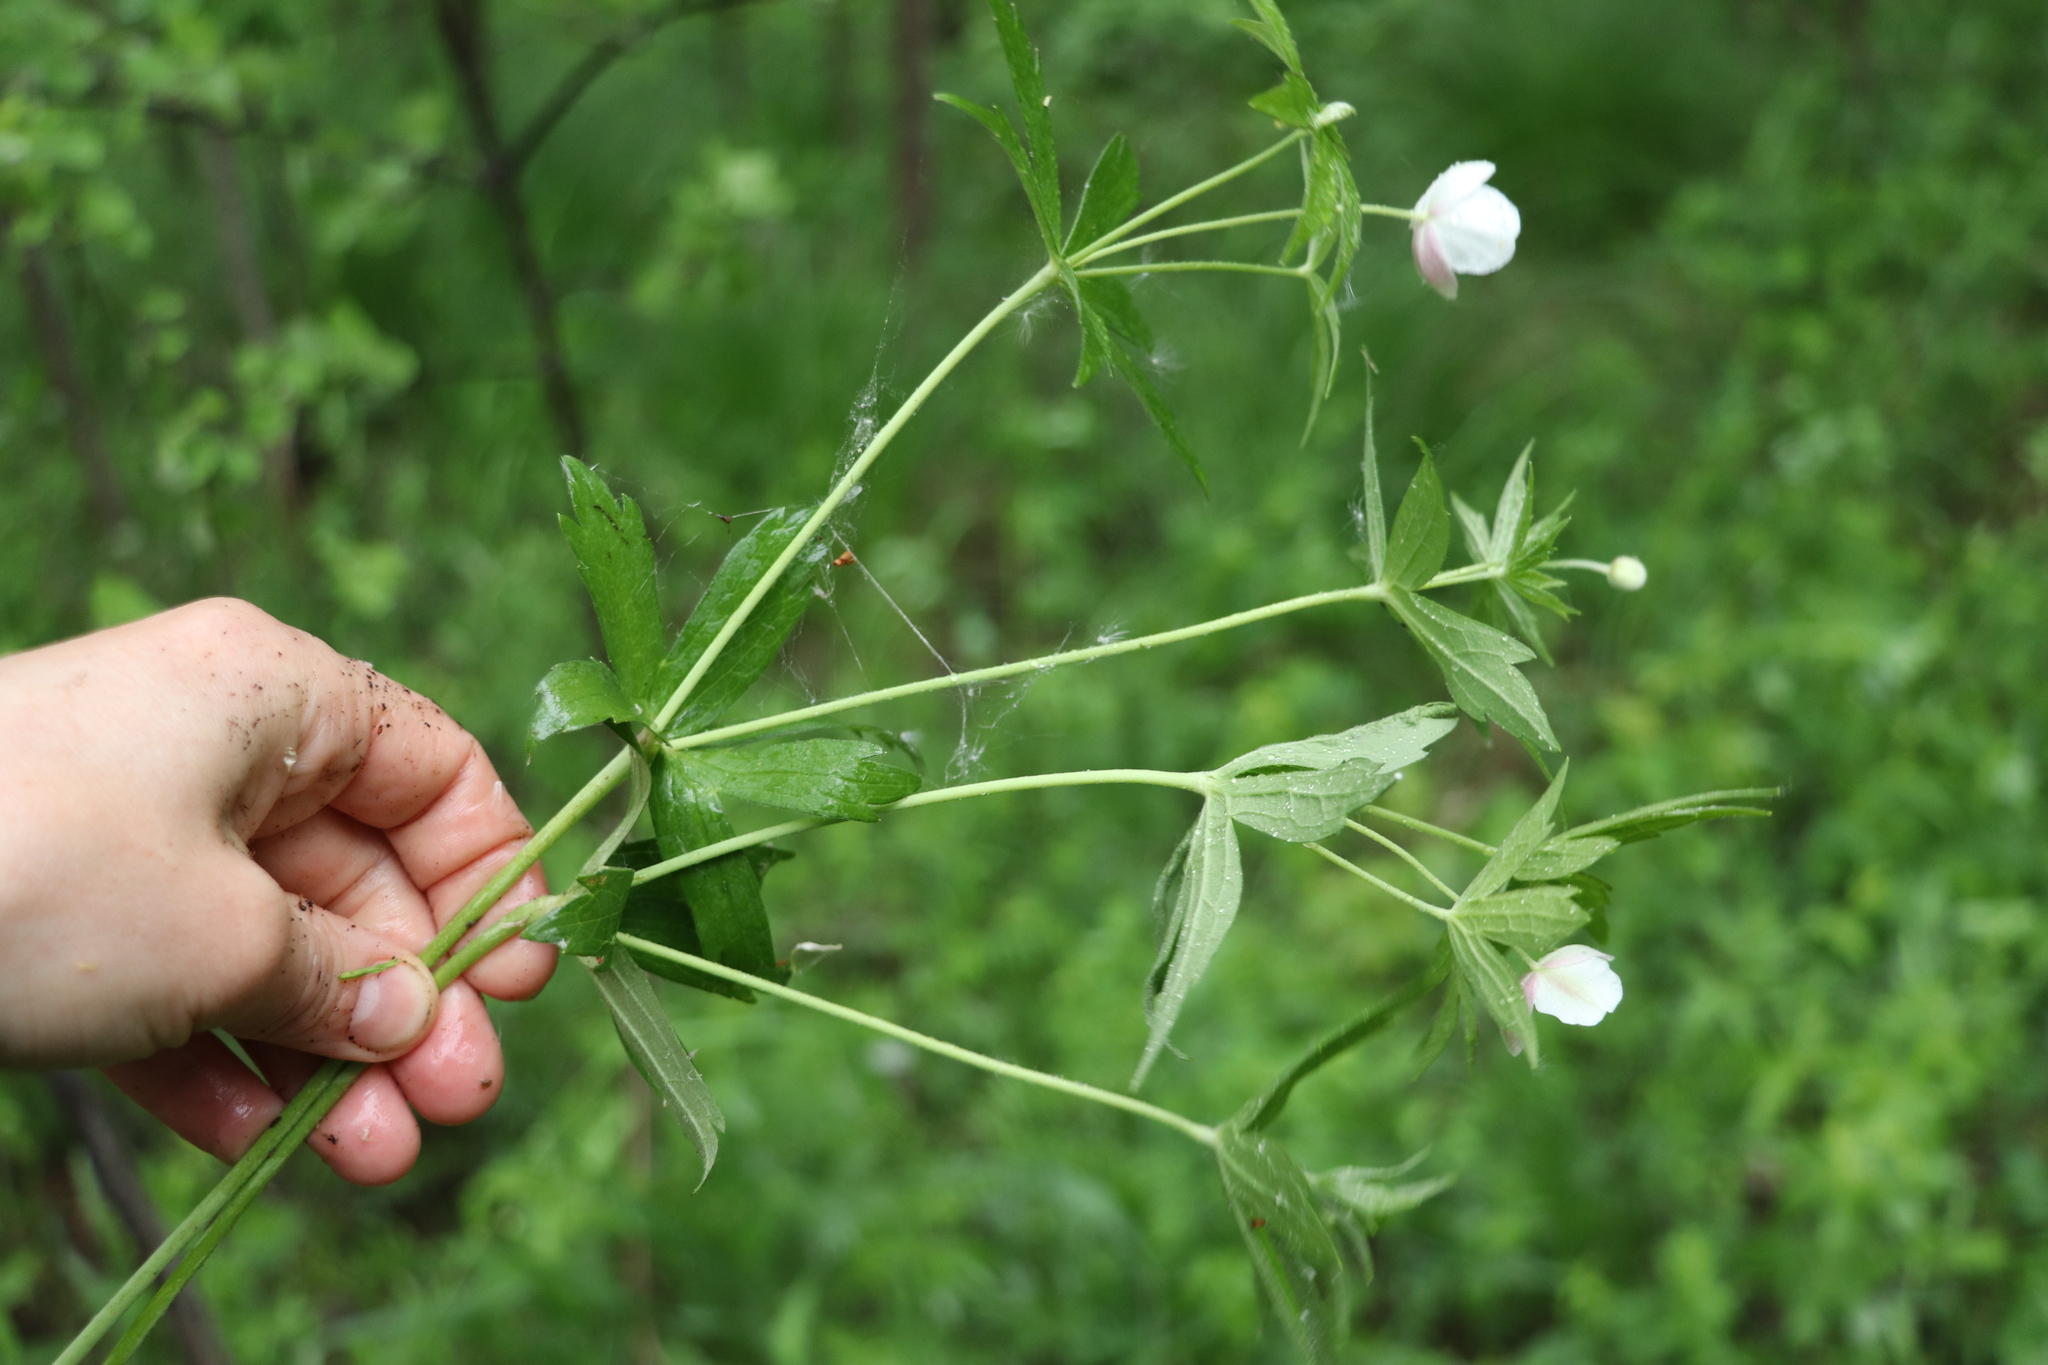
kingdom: Plantae
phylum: Tracheophyta
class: Magnoliopsida
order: Ranunculales
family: Ranunculaceae
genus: Anemonastrum
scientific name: Anemonastrum dichotomum
